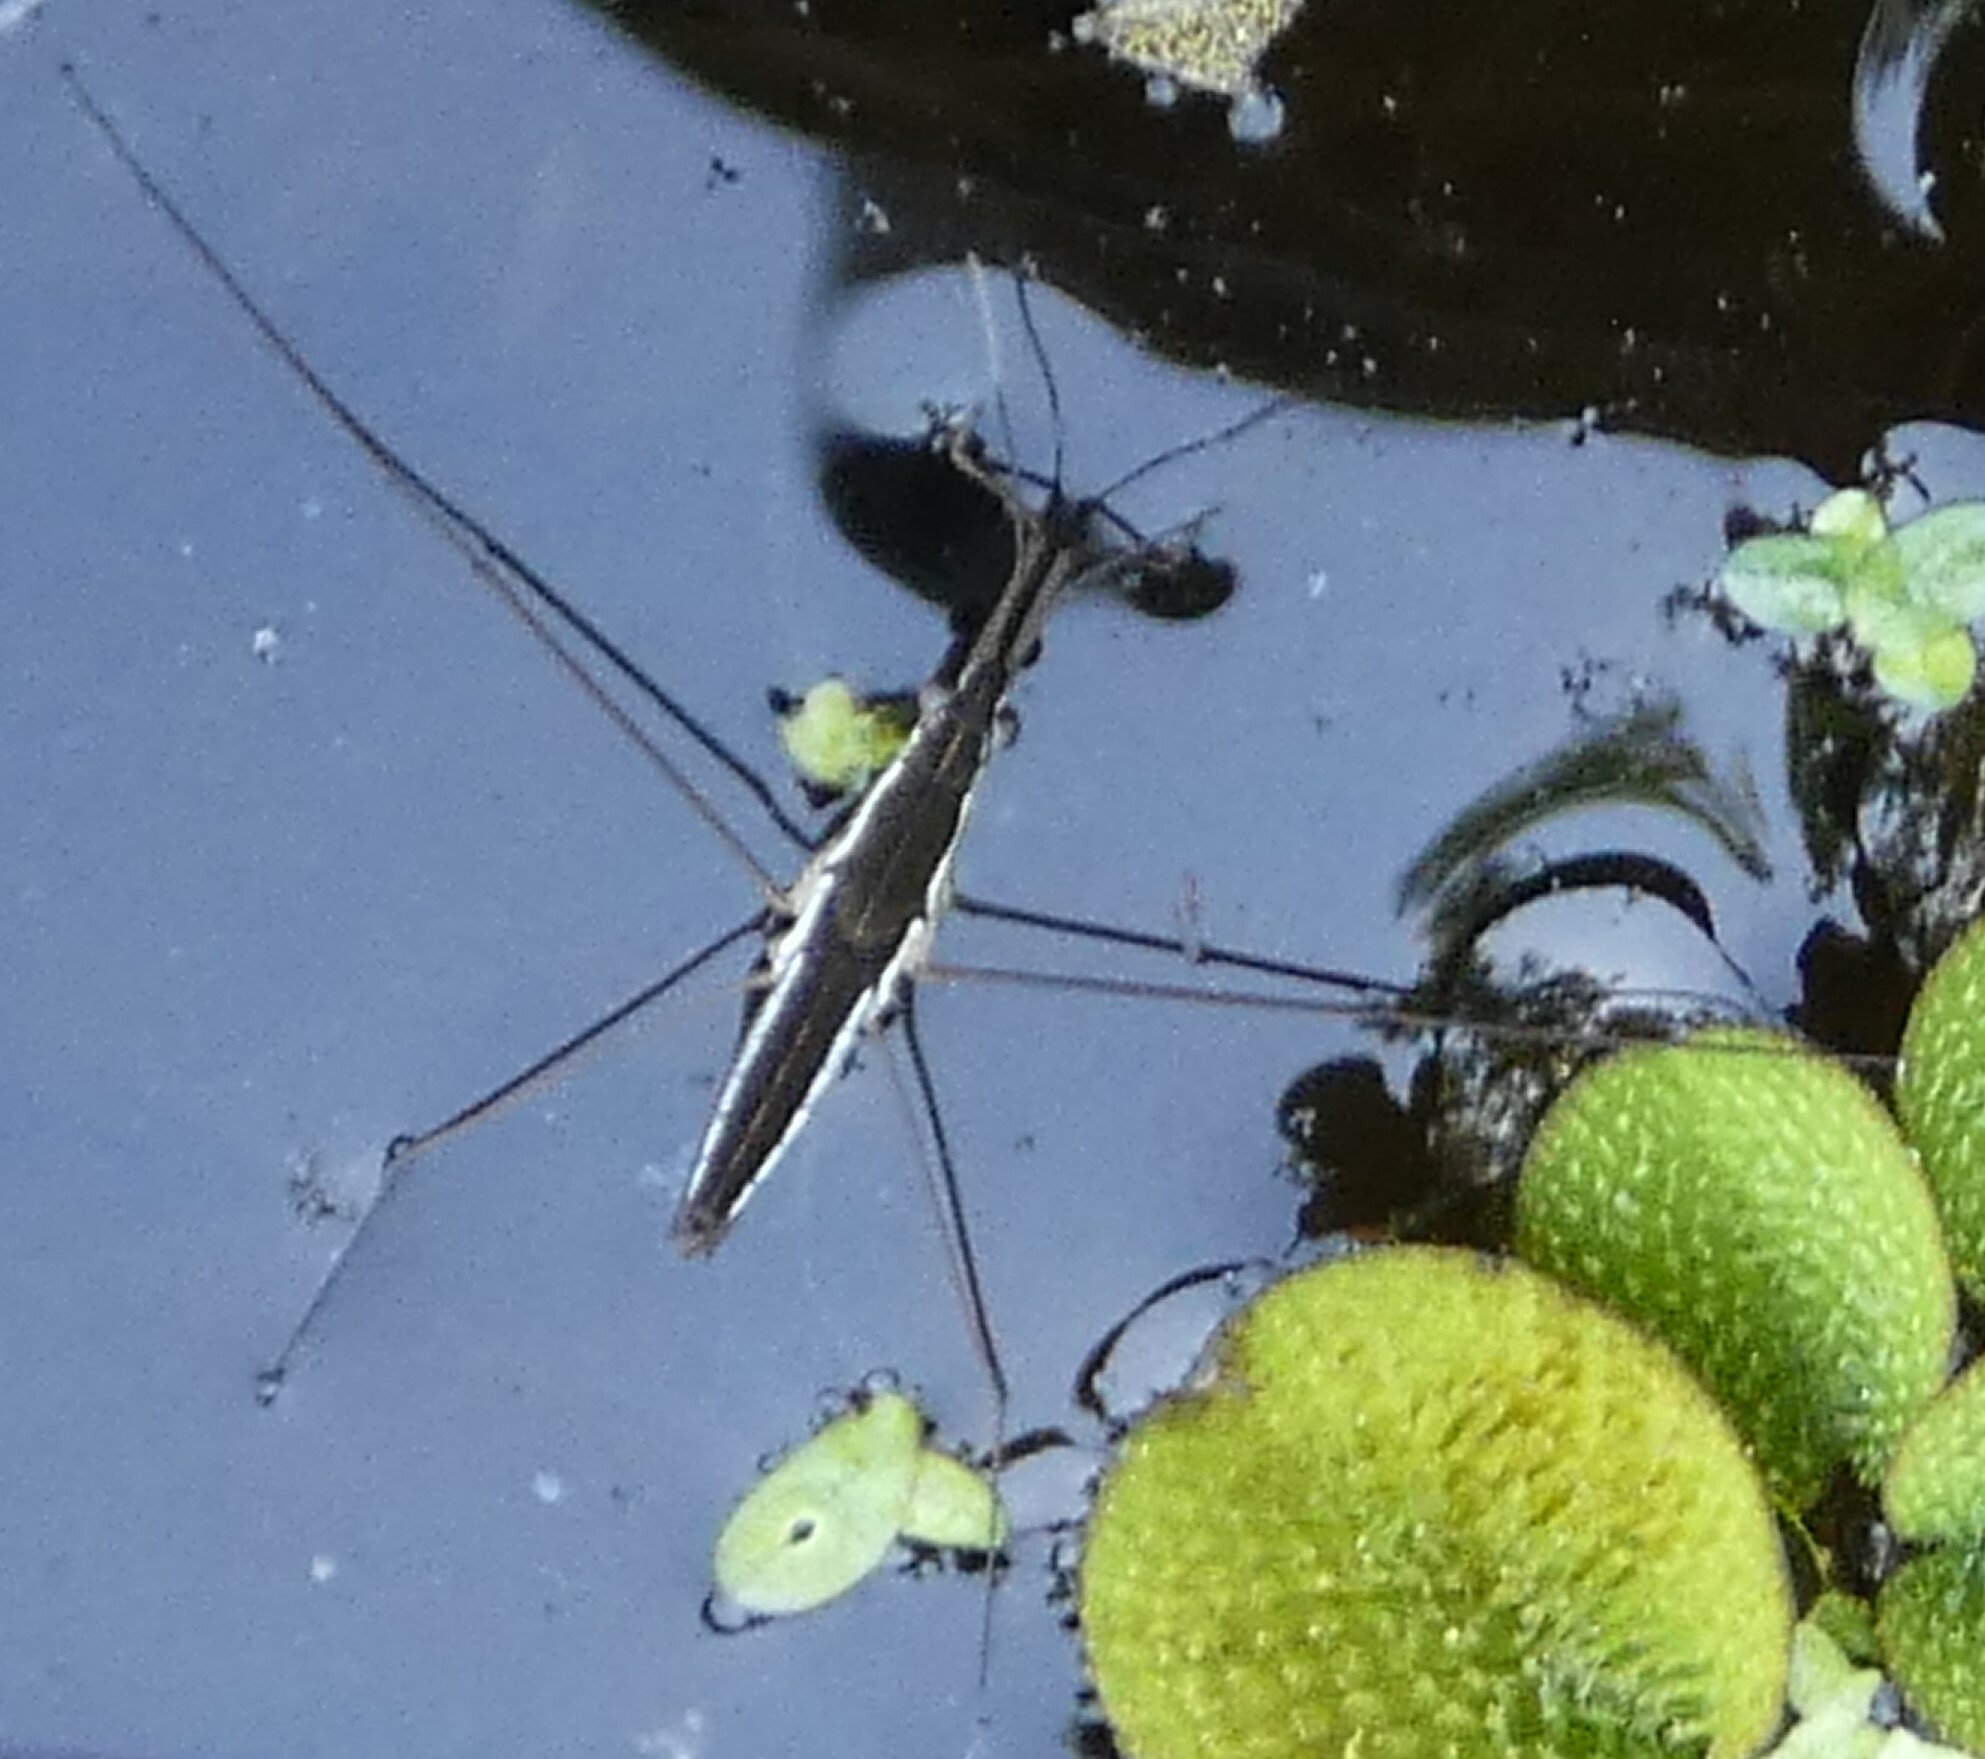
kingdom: Animalia
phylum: Arthropoda
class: Insecta
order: Hemiptera
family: Gerridae
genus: Limnoporus
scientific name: Limnoporus canaliculatus
